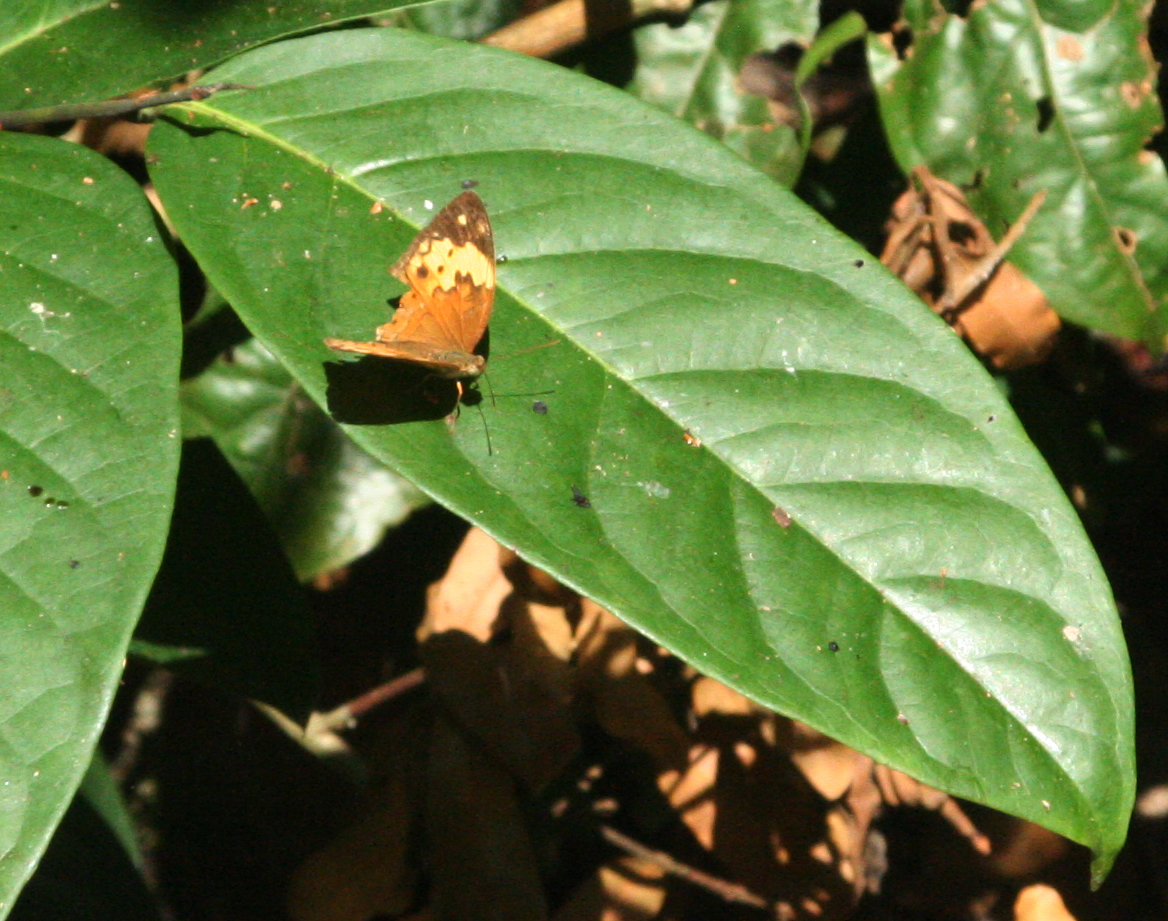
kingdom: Animalia
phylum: Arthropoda
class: Insecta
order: Lepidoptera
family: Nymphalidae
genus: Cupha
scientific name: Cupha erymanthis
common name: Rustic
